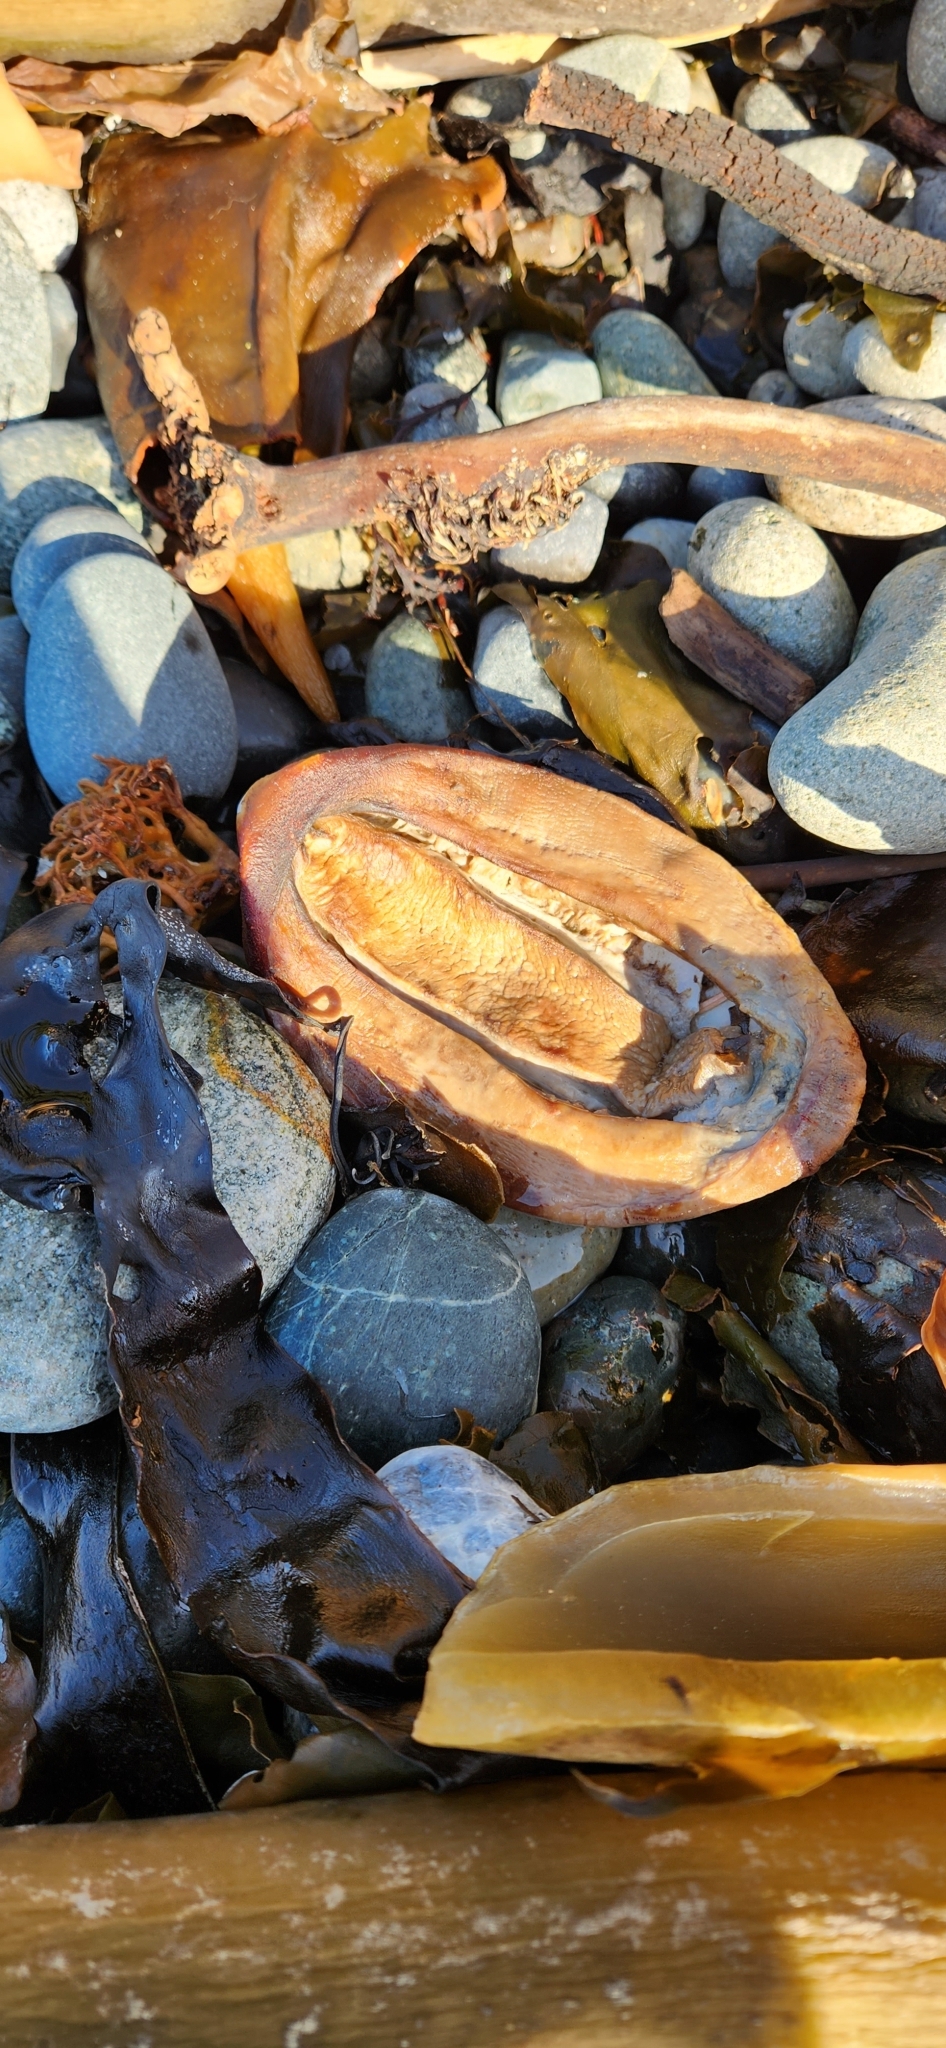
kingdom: Animalia
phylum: Mollusca
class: Polyplacophora
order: Chitonida
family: Acanthochitonidae
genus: Cryptochiton
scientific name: Cryptochiton stelleri
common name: Giant pacific chiton
